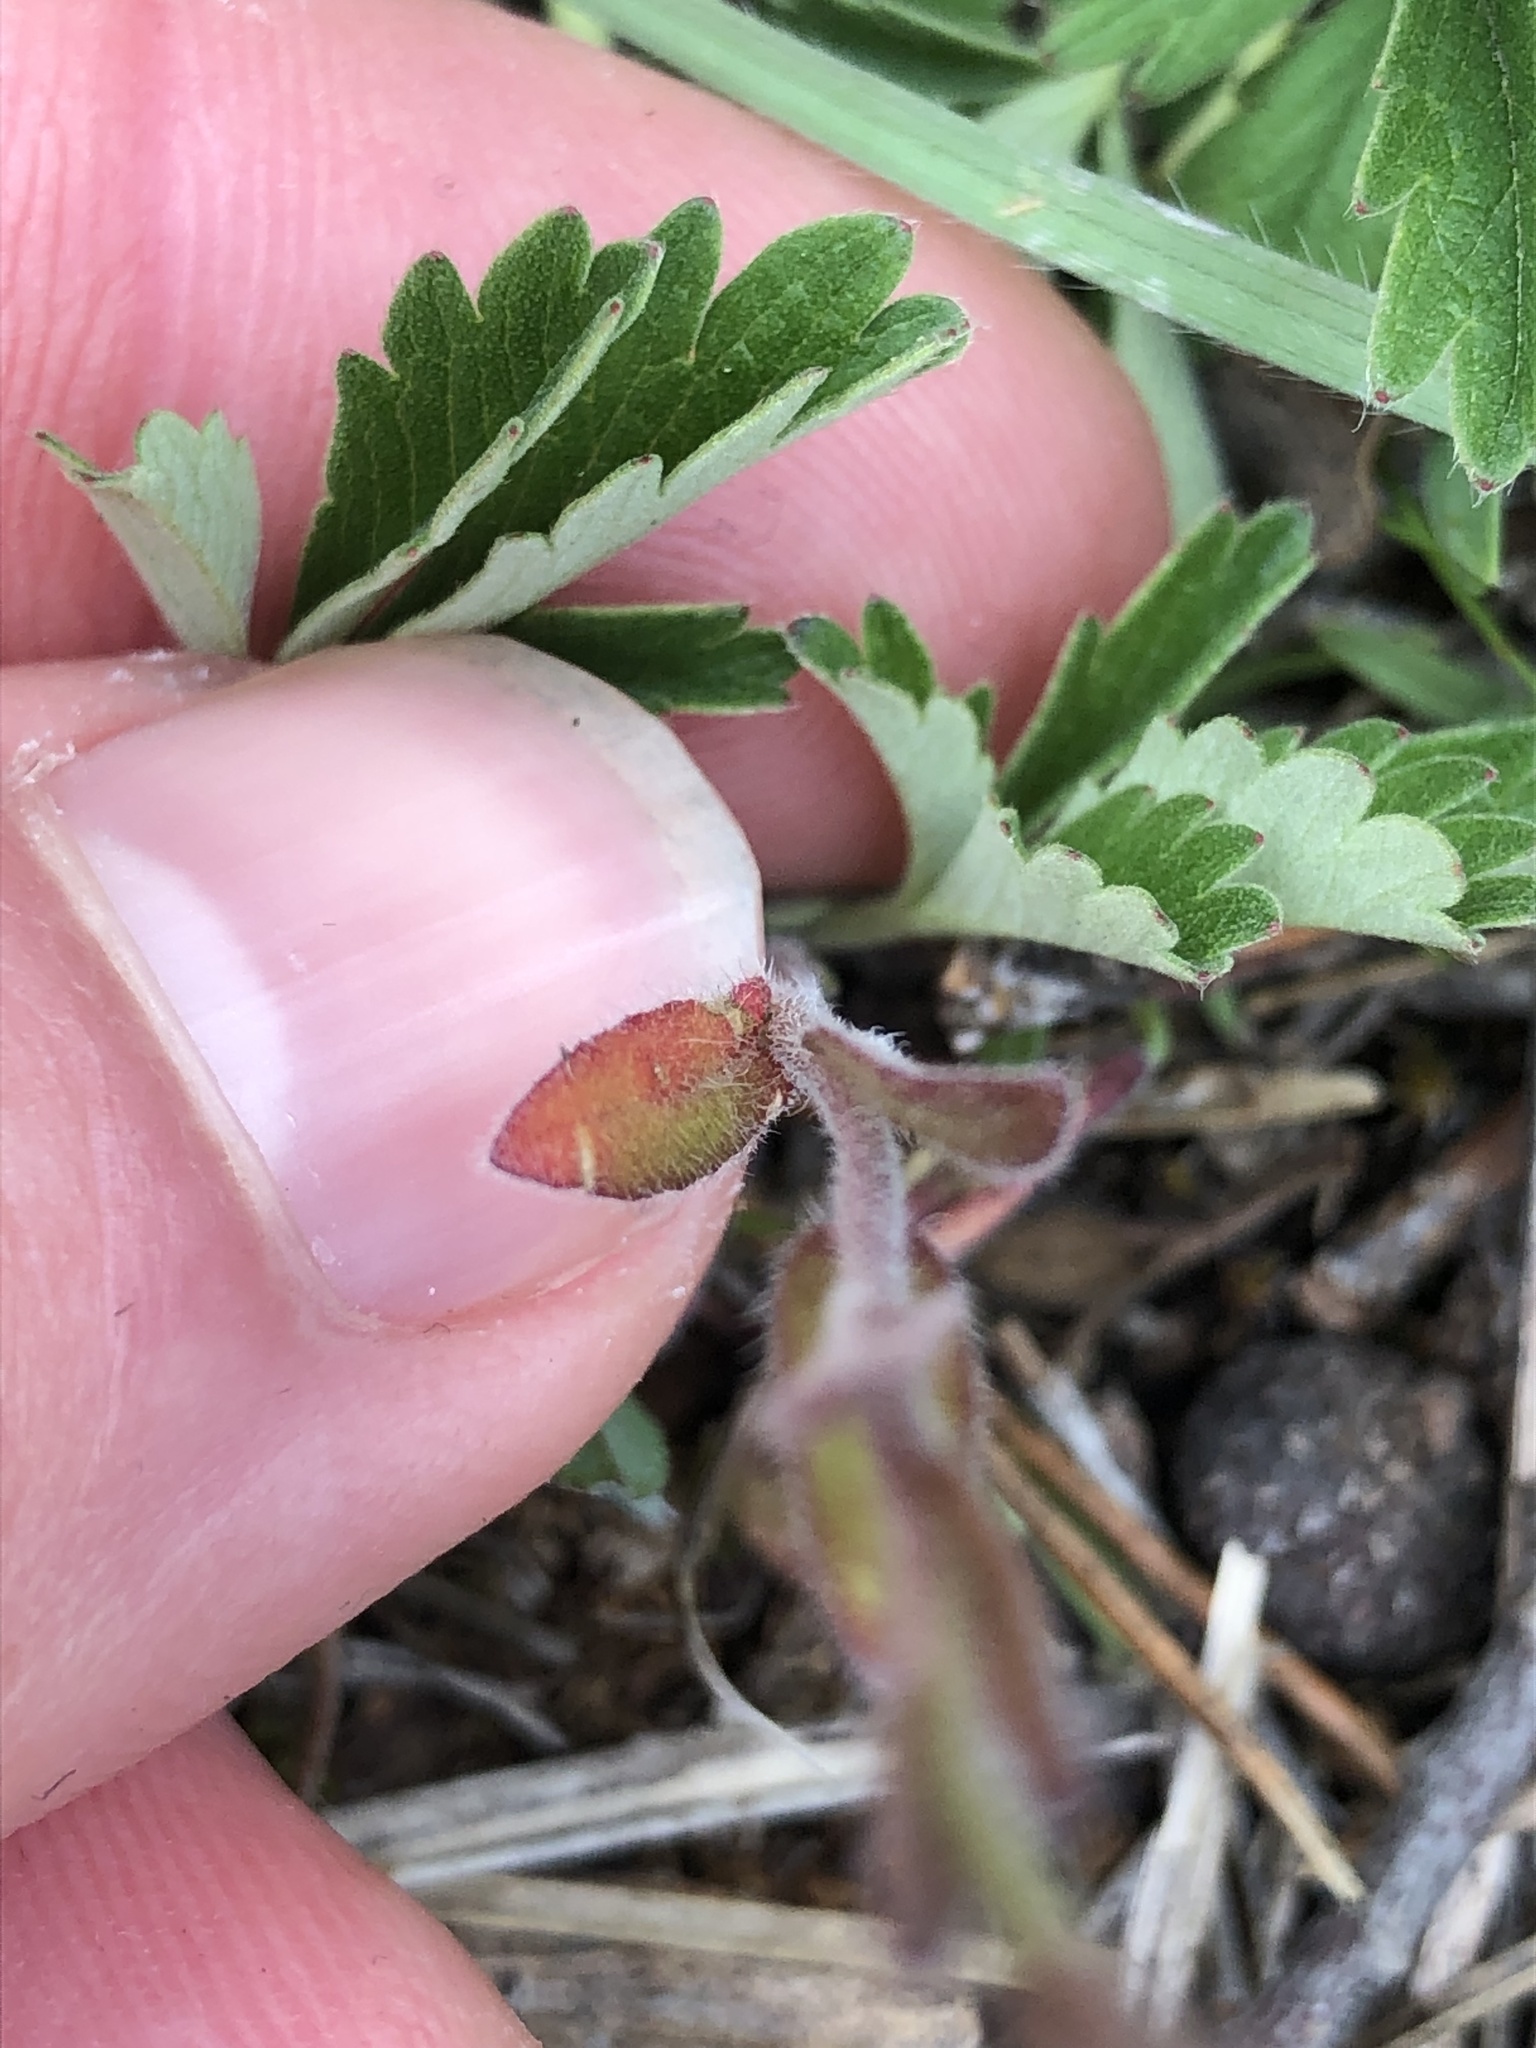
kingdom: Plantae
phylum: Tracheophyta
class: Magnoliopsida
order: Brassicales
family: Brassicaceae
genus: Camelina
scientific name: Camelina microcarpa
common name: Lesser gold-of-pleasure
